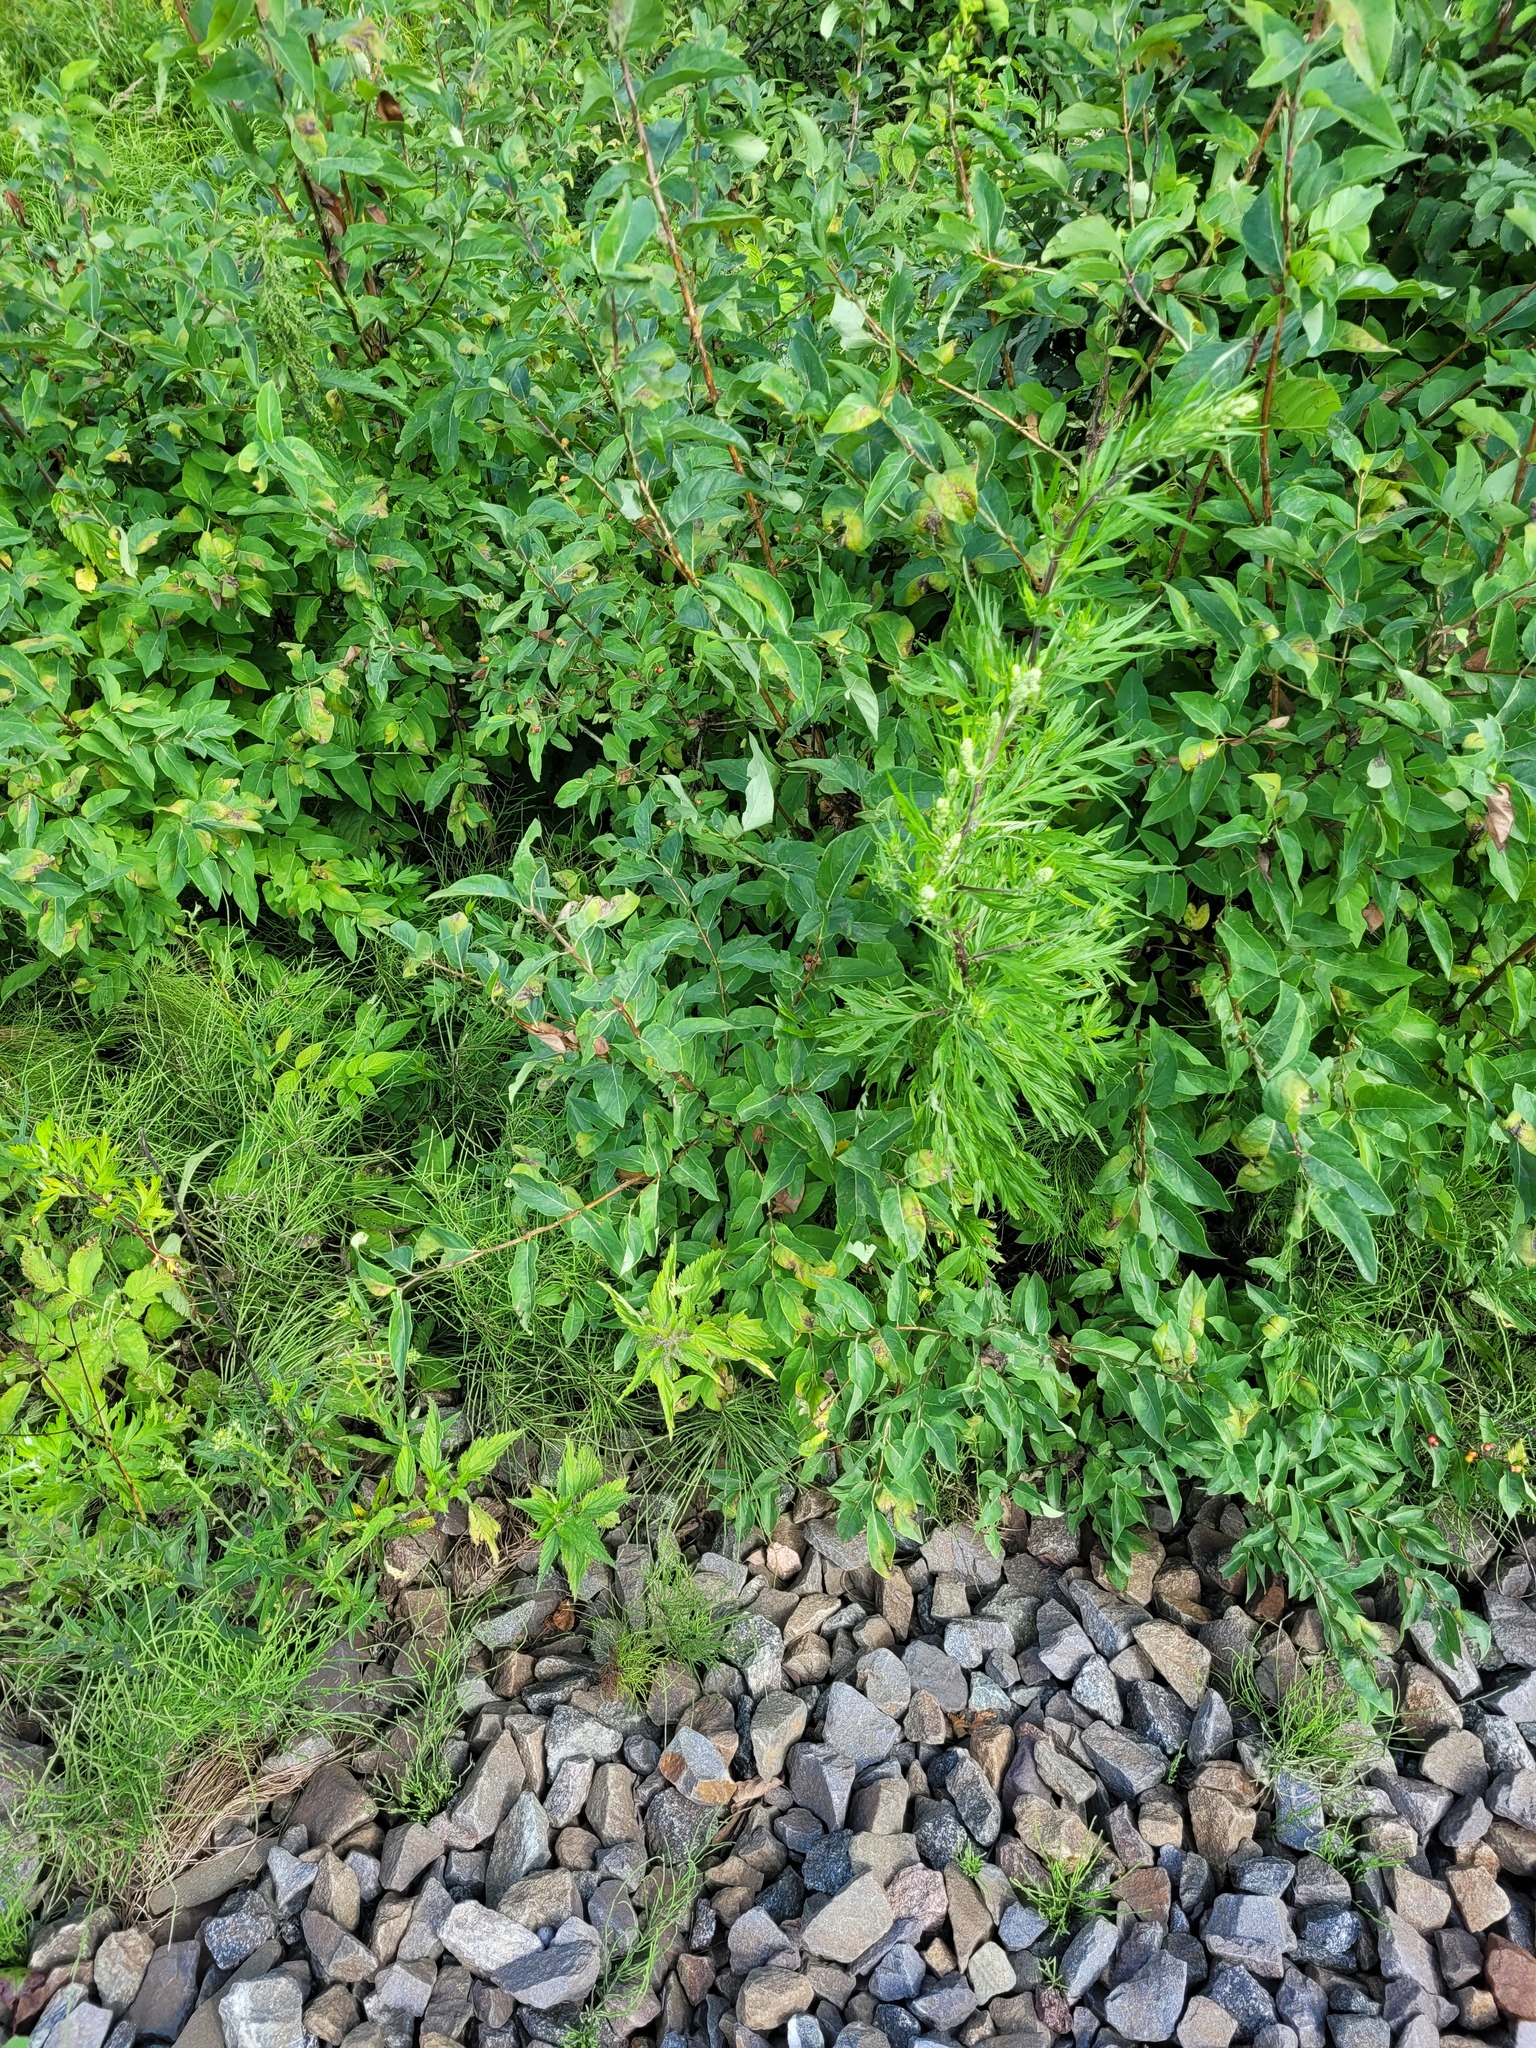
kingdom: Plantae
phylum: Tracheophyta
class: Magnoliopsida
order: Dipsacales
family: Caprifoliaceae
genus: Lonicera
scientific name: Lonicera tatarica
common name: Tatarian honeysuckle
